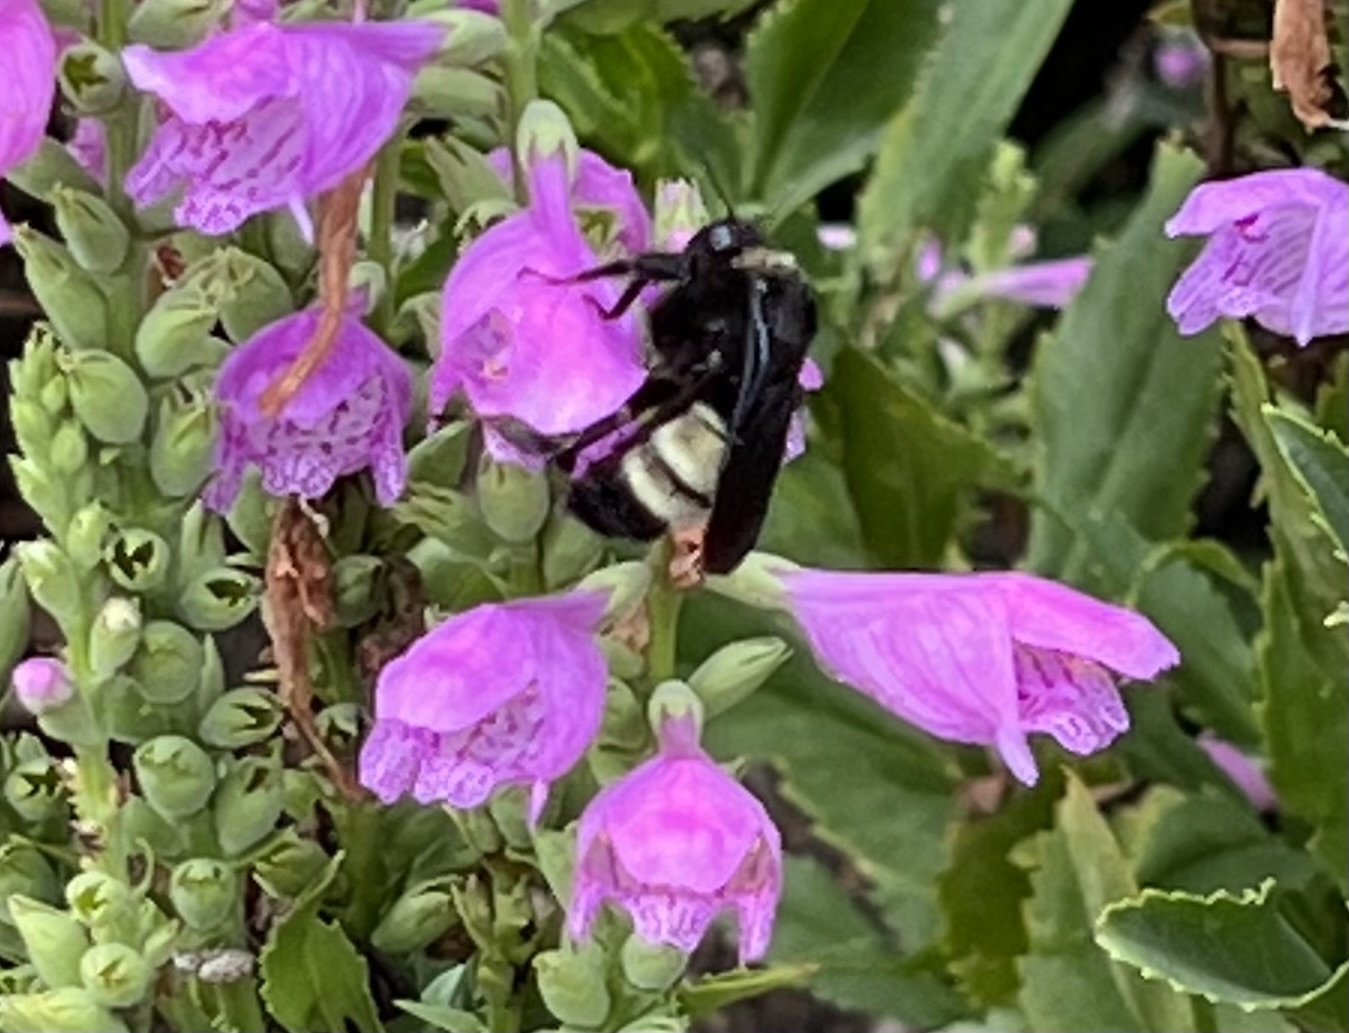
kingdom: Animalia
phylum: Arthropoda
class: Insecta
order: Hymenoptera
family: Apidae
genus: Bombus
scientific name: Bombus pensylvanicus
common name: Bumble bee
